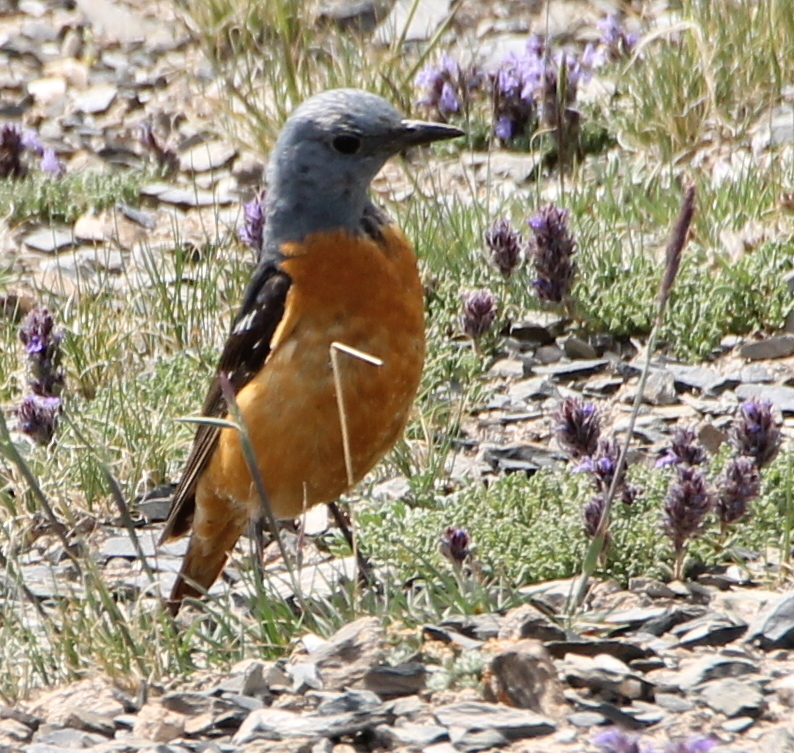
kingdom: Animalia
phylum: Chordata
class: Aves
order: Passeriformes
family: Muscicapidae
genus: Monticola
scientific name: Monticola saxatilis
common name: Rufous-tailed rock thrush
